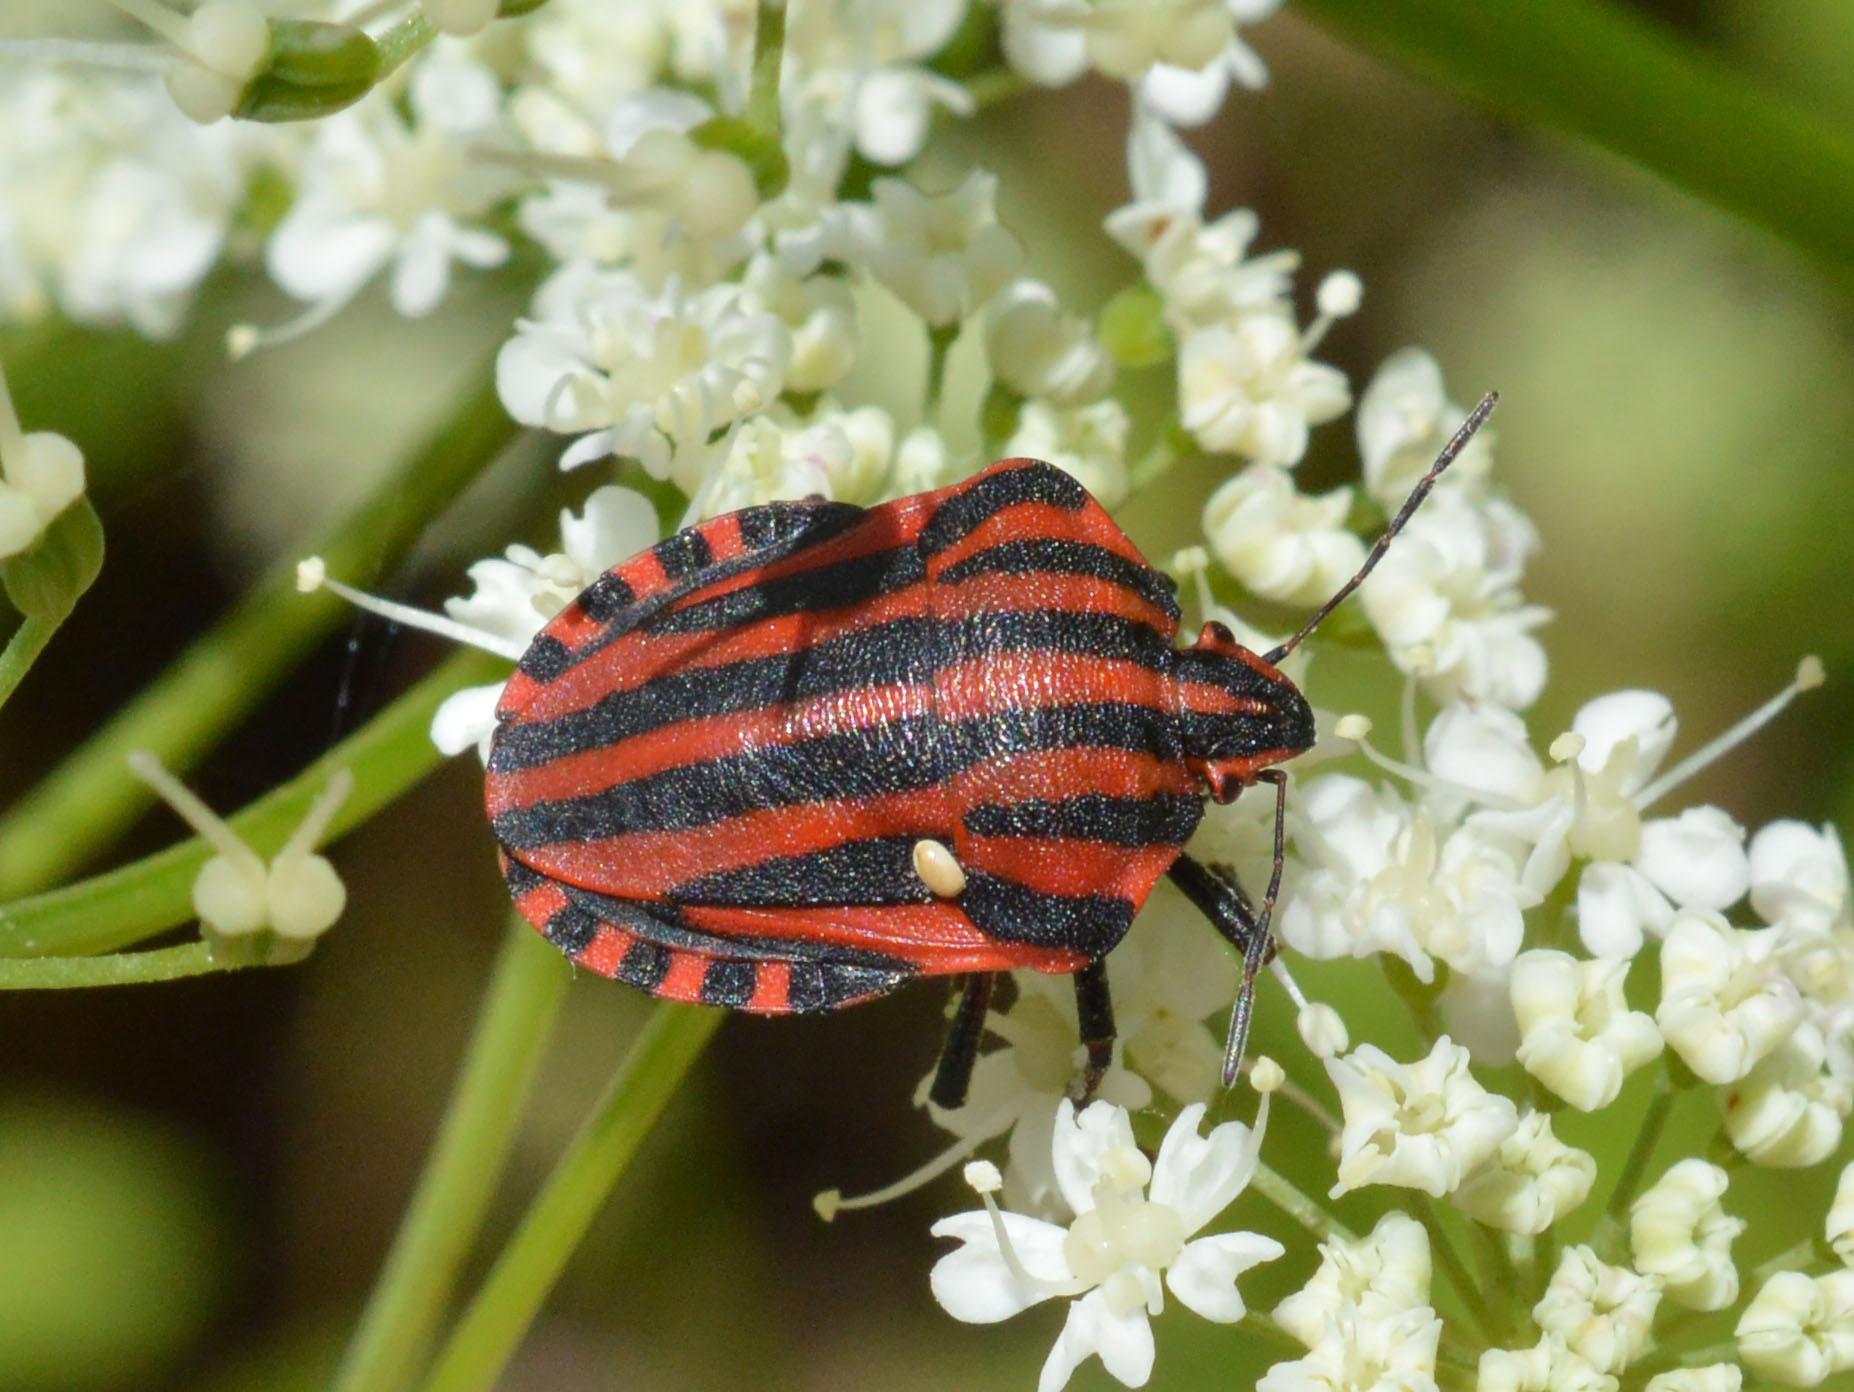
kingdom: Animalia
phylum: Arthropoda
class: Insecta
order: Hemiptera
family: Pentatomidae
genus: Graphosoma
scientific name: Graphosoma italicum
